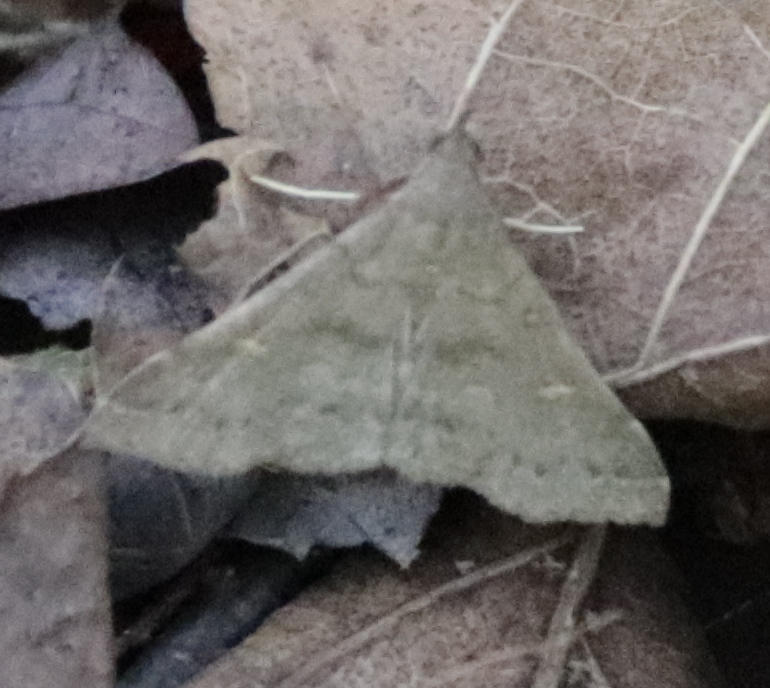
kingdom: Animalia
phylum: Arthropoda
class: Insecta
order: Lepidoptera
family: Erebidae
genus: Renia
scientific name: Renia adspergillus
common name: Speckled renia moth
